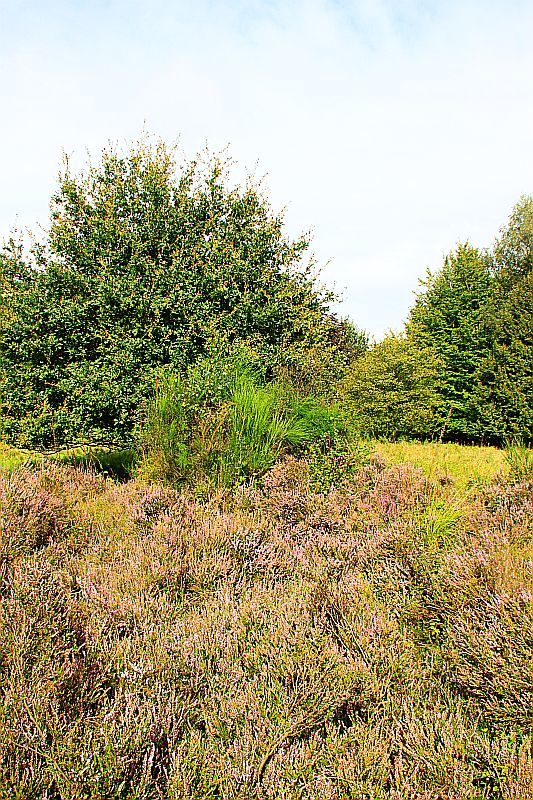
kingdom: Plantae
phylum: Tracheophyta
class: Magnoliopsida
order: Ericales
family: Ericaceae
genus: Calluna
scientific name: Calluna vulgaris
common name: Heather
